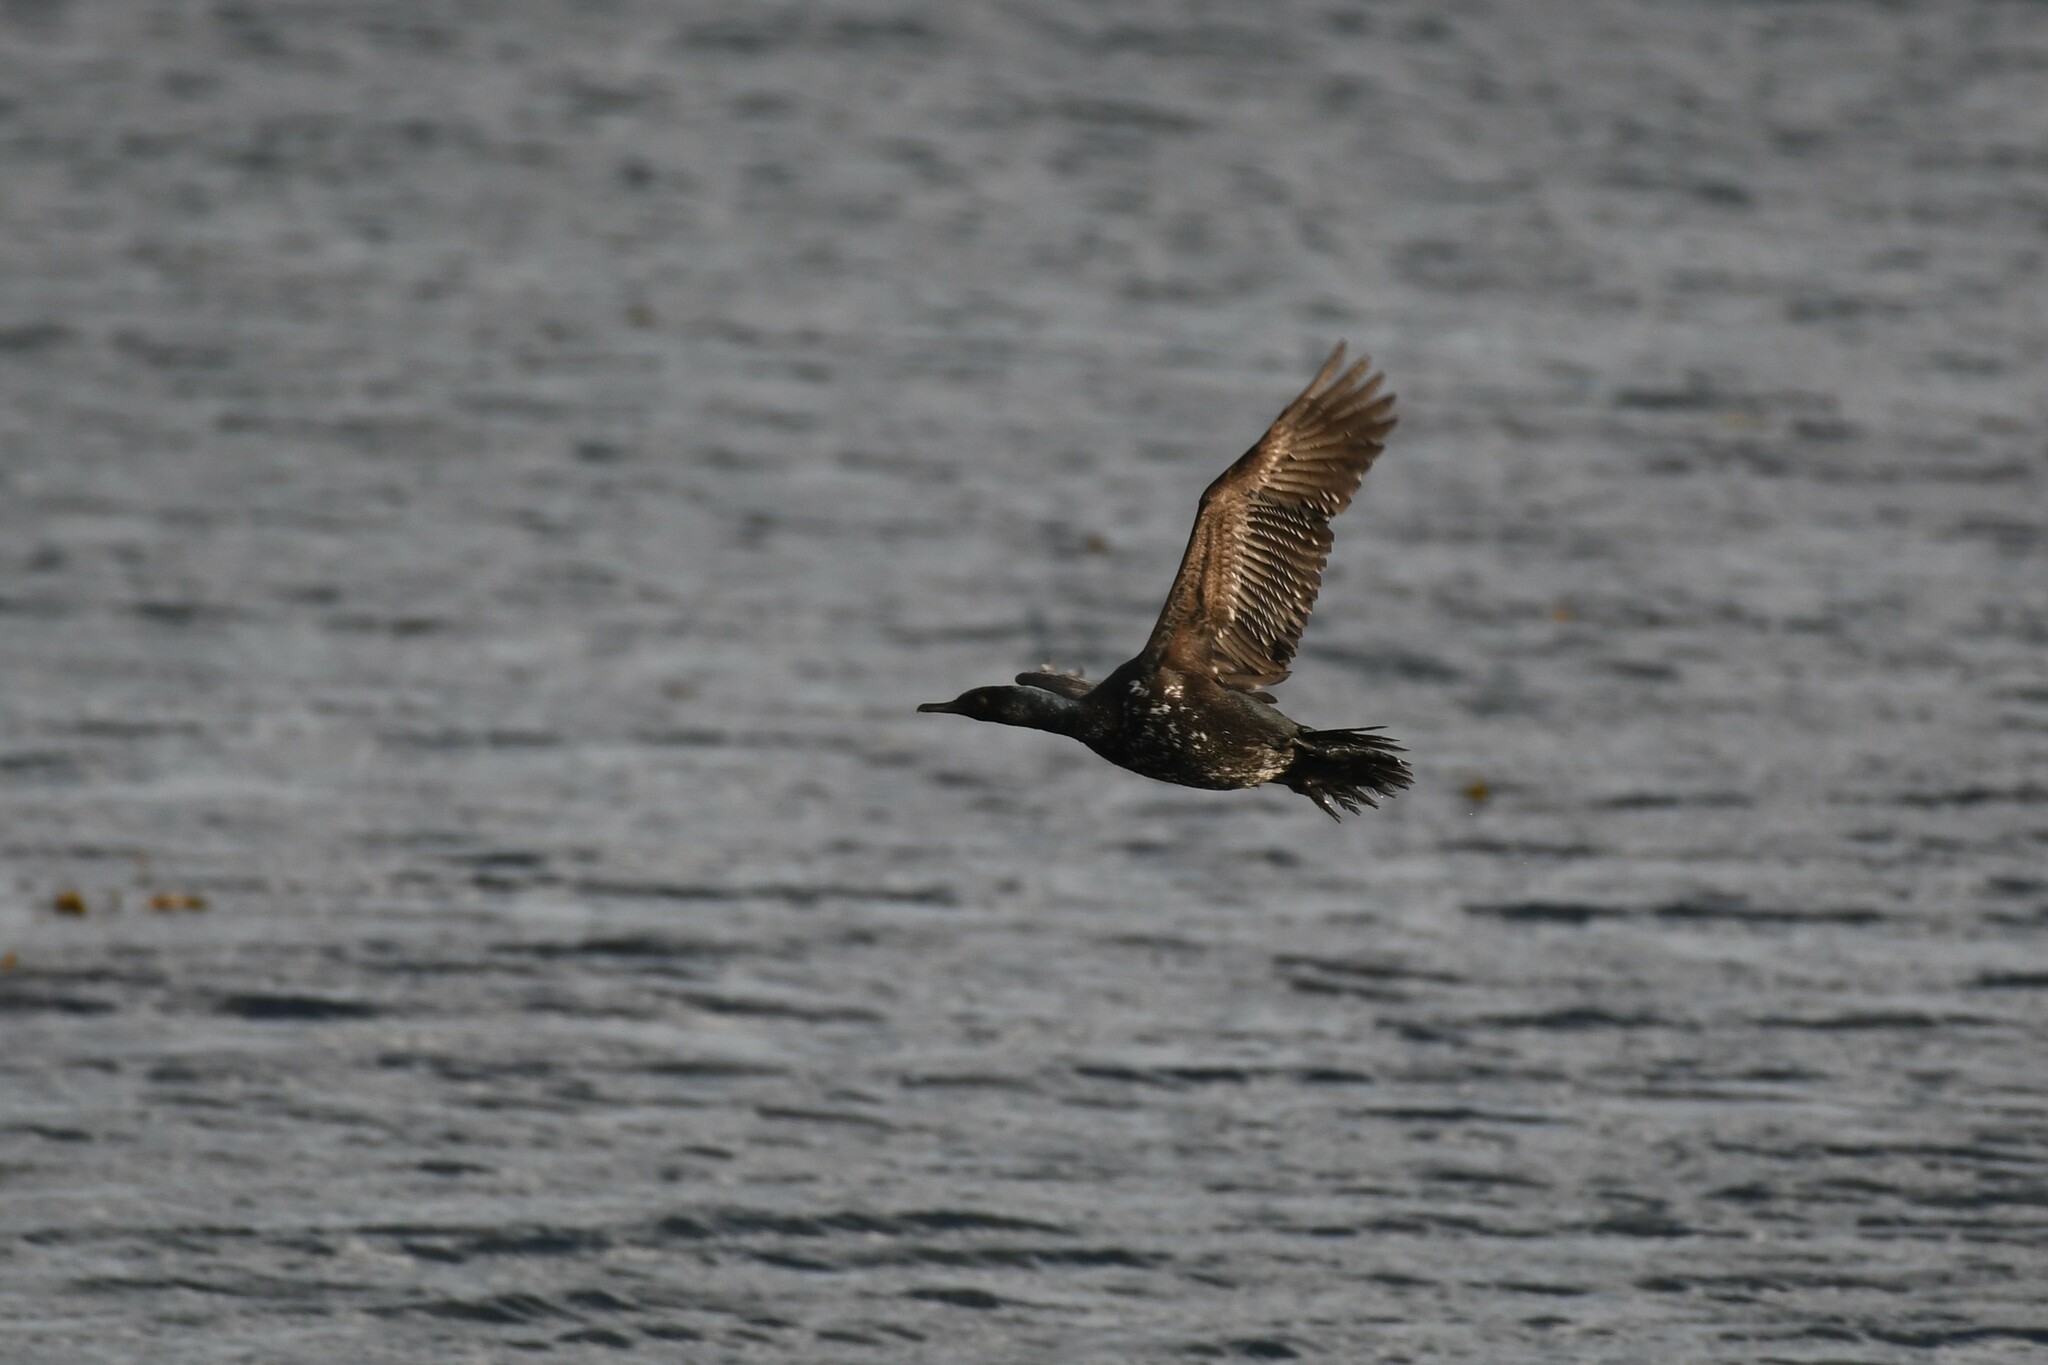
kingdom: Animalia
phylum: Chordata
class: Aves
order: Suliformes
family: Phalacrocoracidae
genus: Phalacrocorax
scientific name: Phalacrocorax magellanicus
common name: Rock shag
